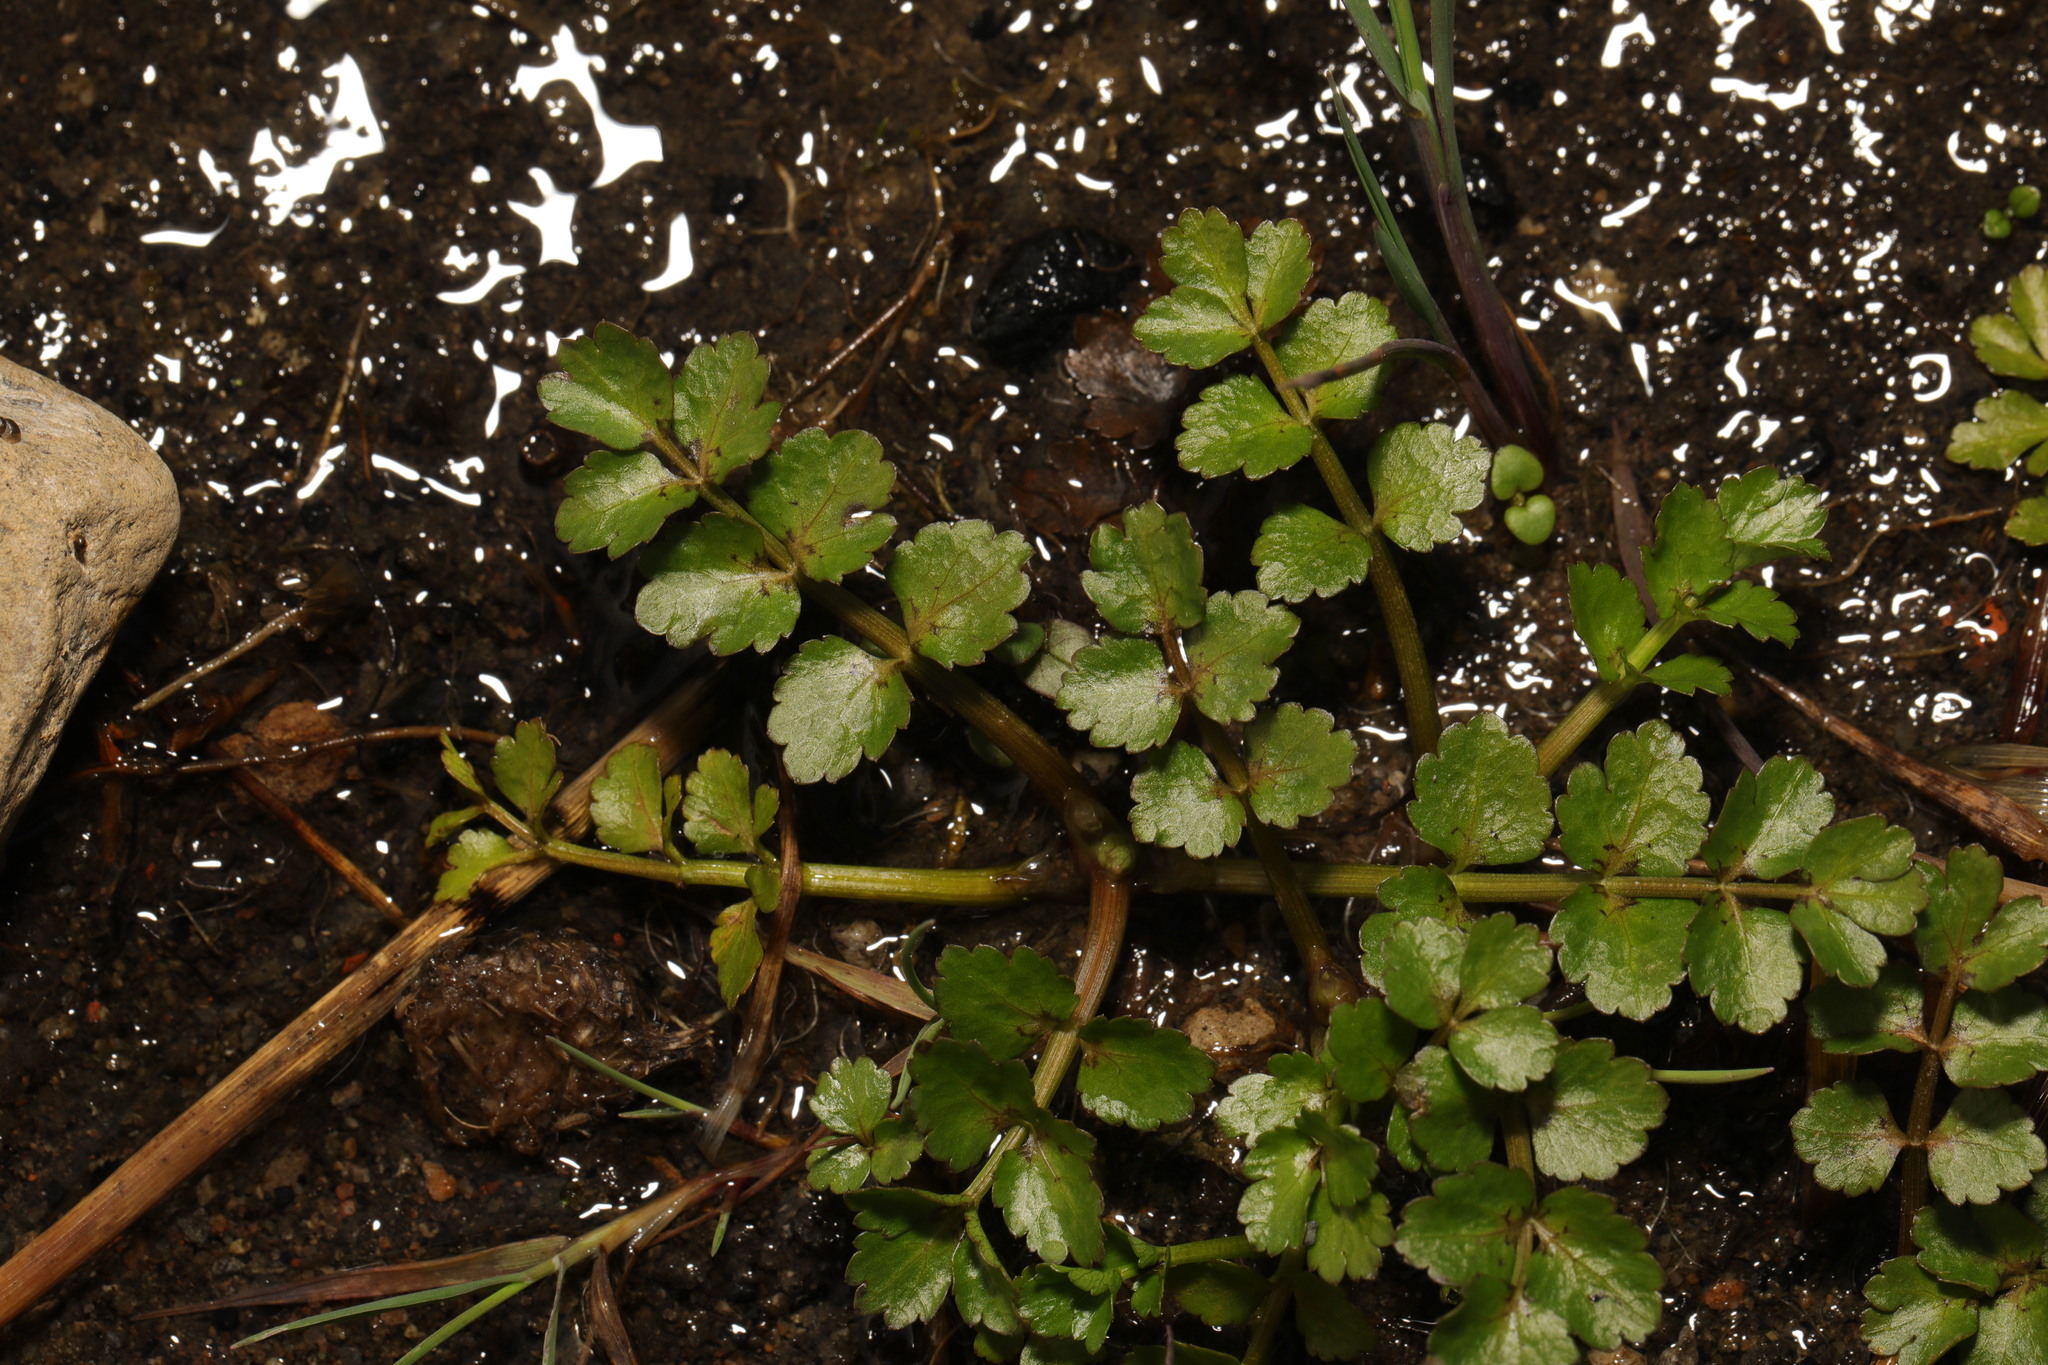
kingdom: Plantae
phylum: Tracheophyta
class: Magnoliopsida
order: Apiales
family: Apiaceae
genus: Helosciadium
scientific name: Helosciadium nodiflorum
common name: Fool's-watercress
